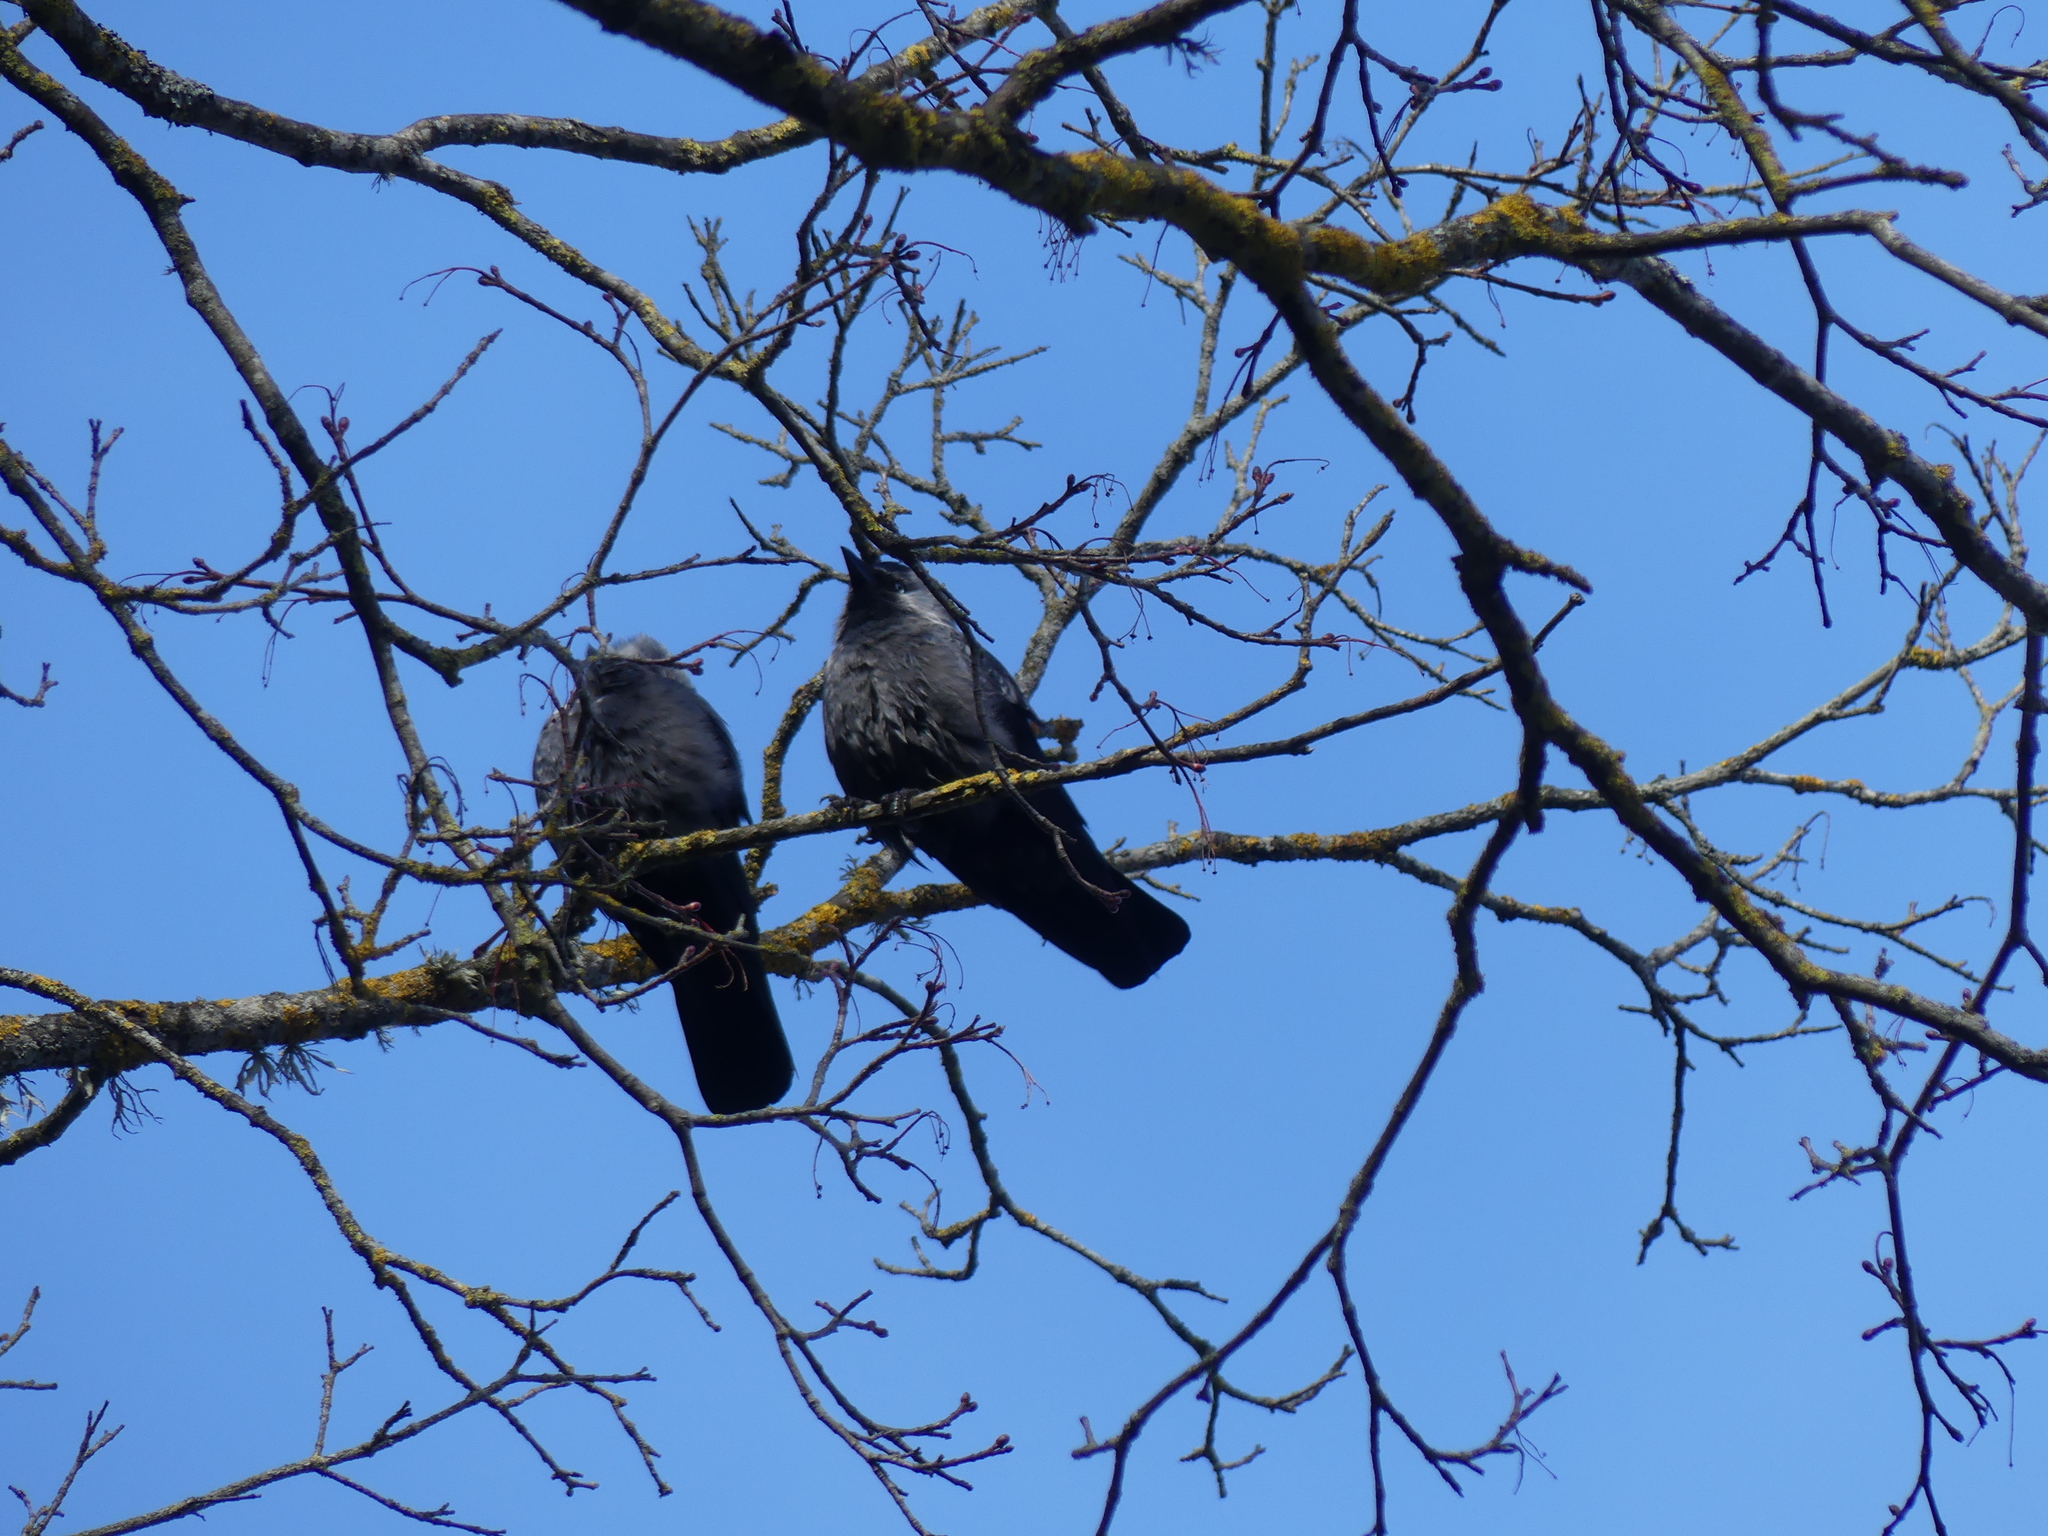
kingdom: Animalia
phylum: Chordata
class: Aves
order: Passeriformes
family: Corvidae
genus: Coloeus
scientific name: Coloeus monedula
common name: Western jackdaw
